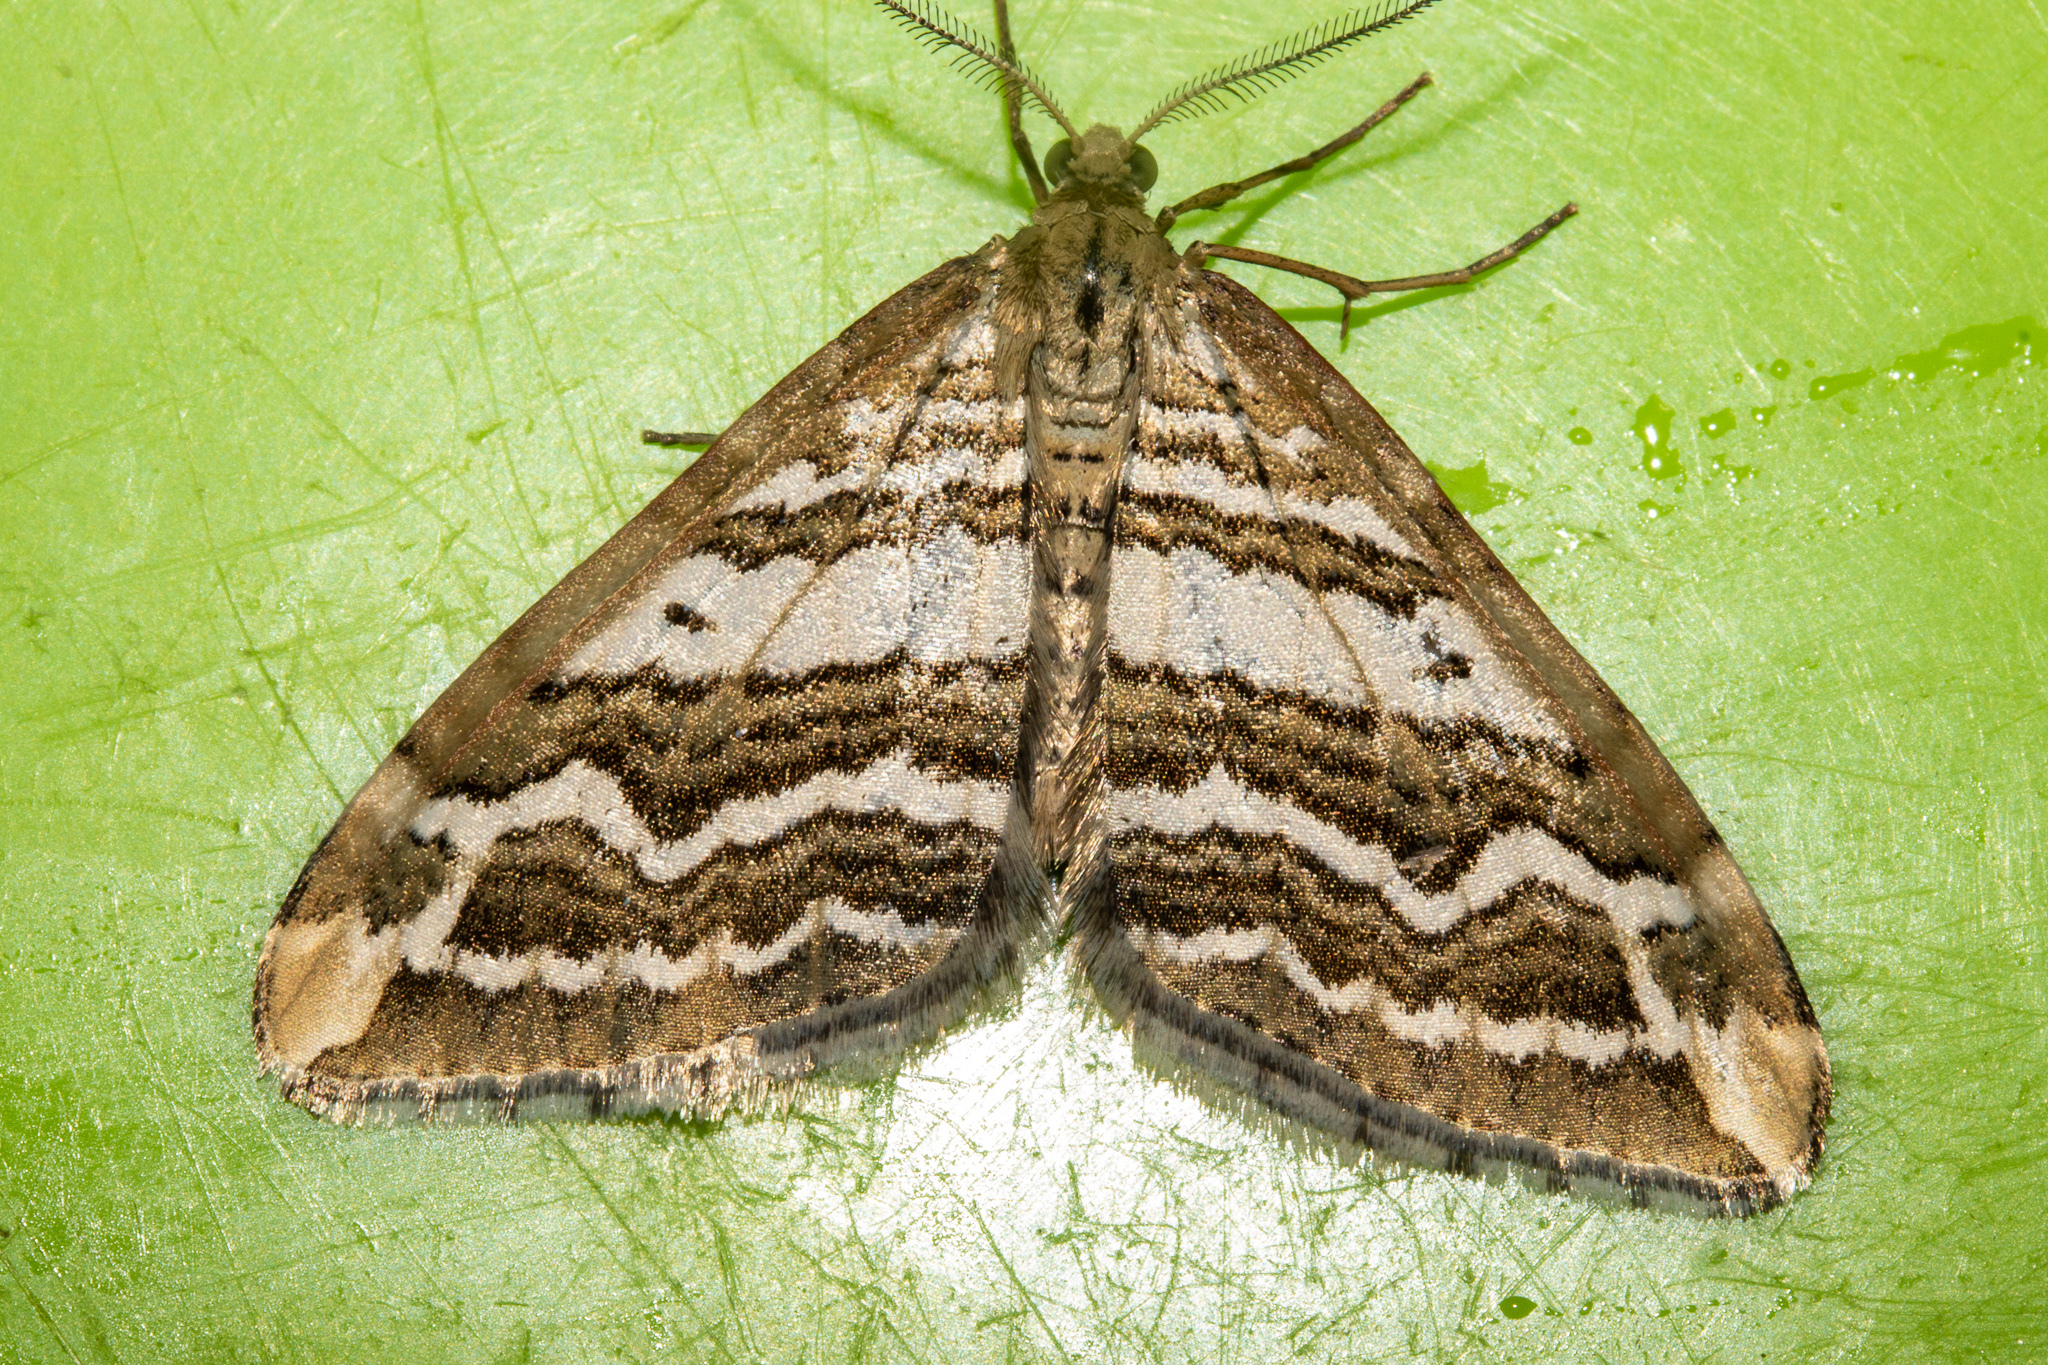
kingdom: Animalia
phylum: Arthropoda
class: Insecta
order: Lepidoptera
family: Geometridae
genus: Asaphodes
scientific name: Asaphodes cataphracta
